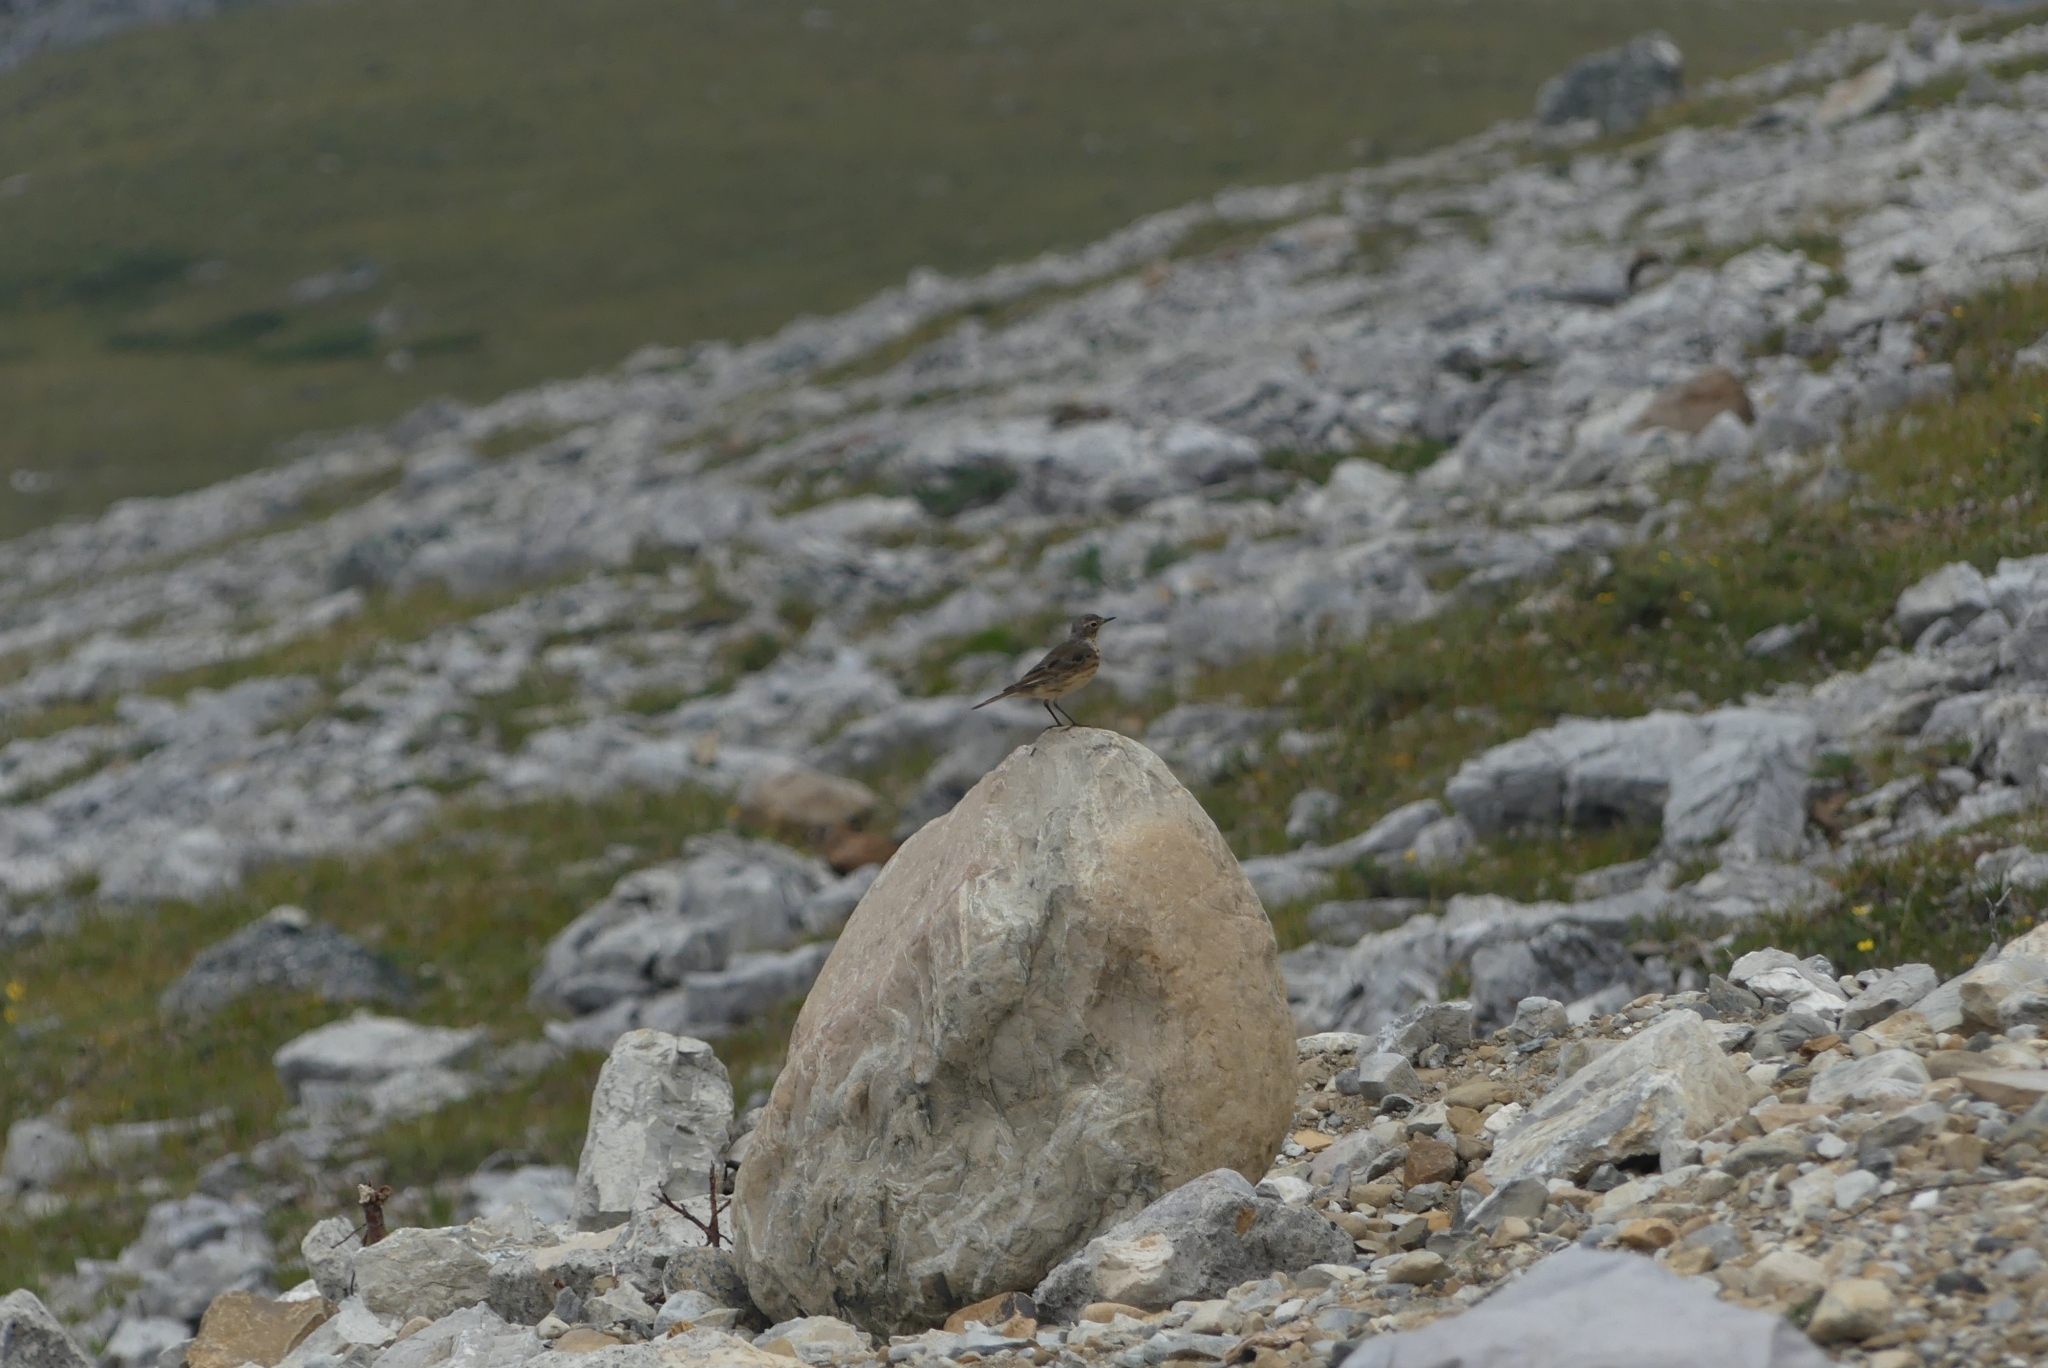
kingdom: Animalia
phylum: Chordata
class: Aves
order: Passeriformes
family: Motacillidae
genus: Anthus
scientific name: Anthus rubescens
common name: Buff-bellied pipit
